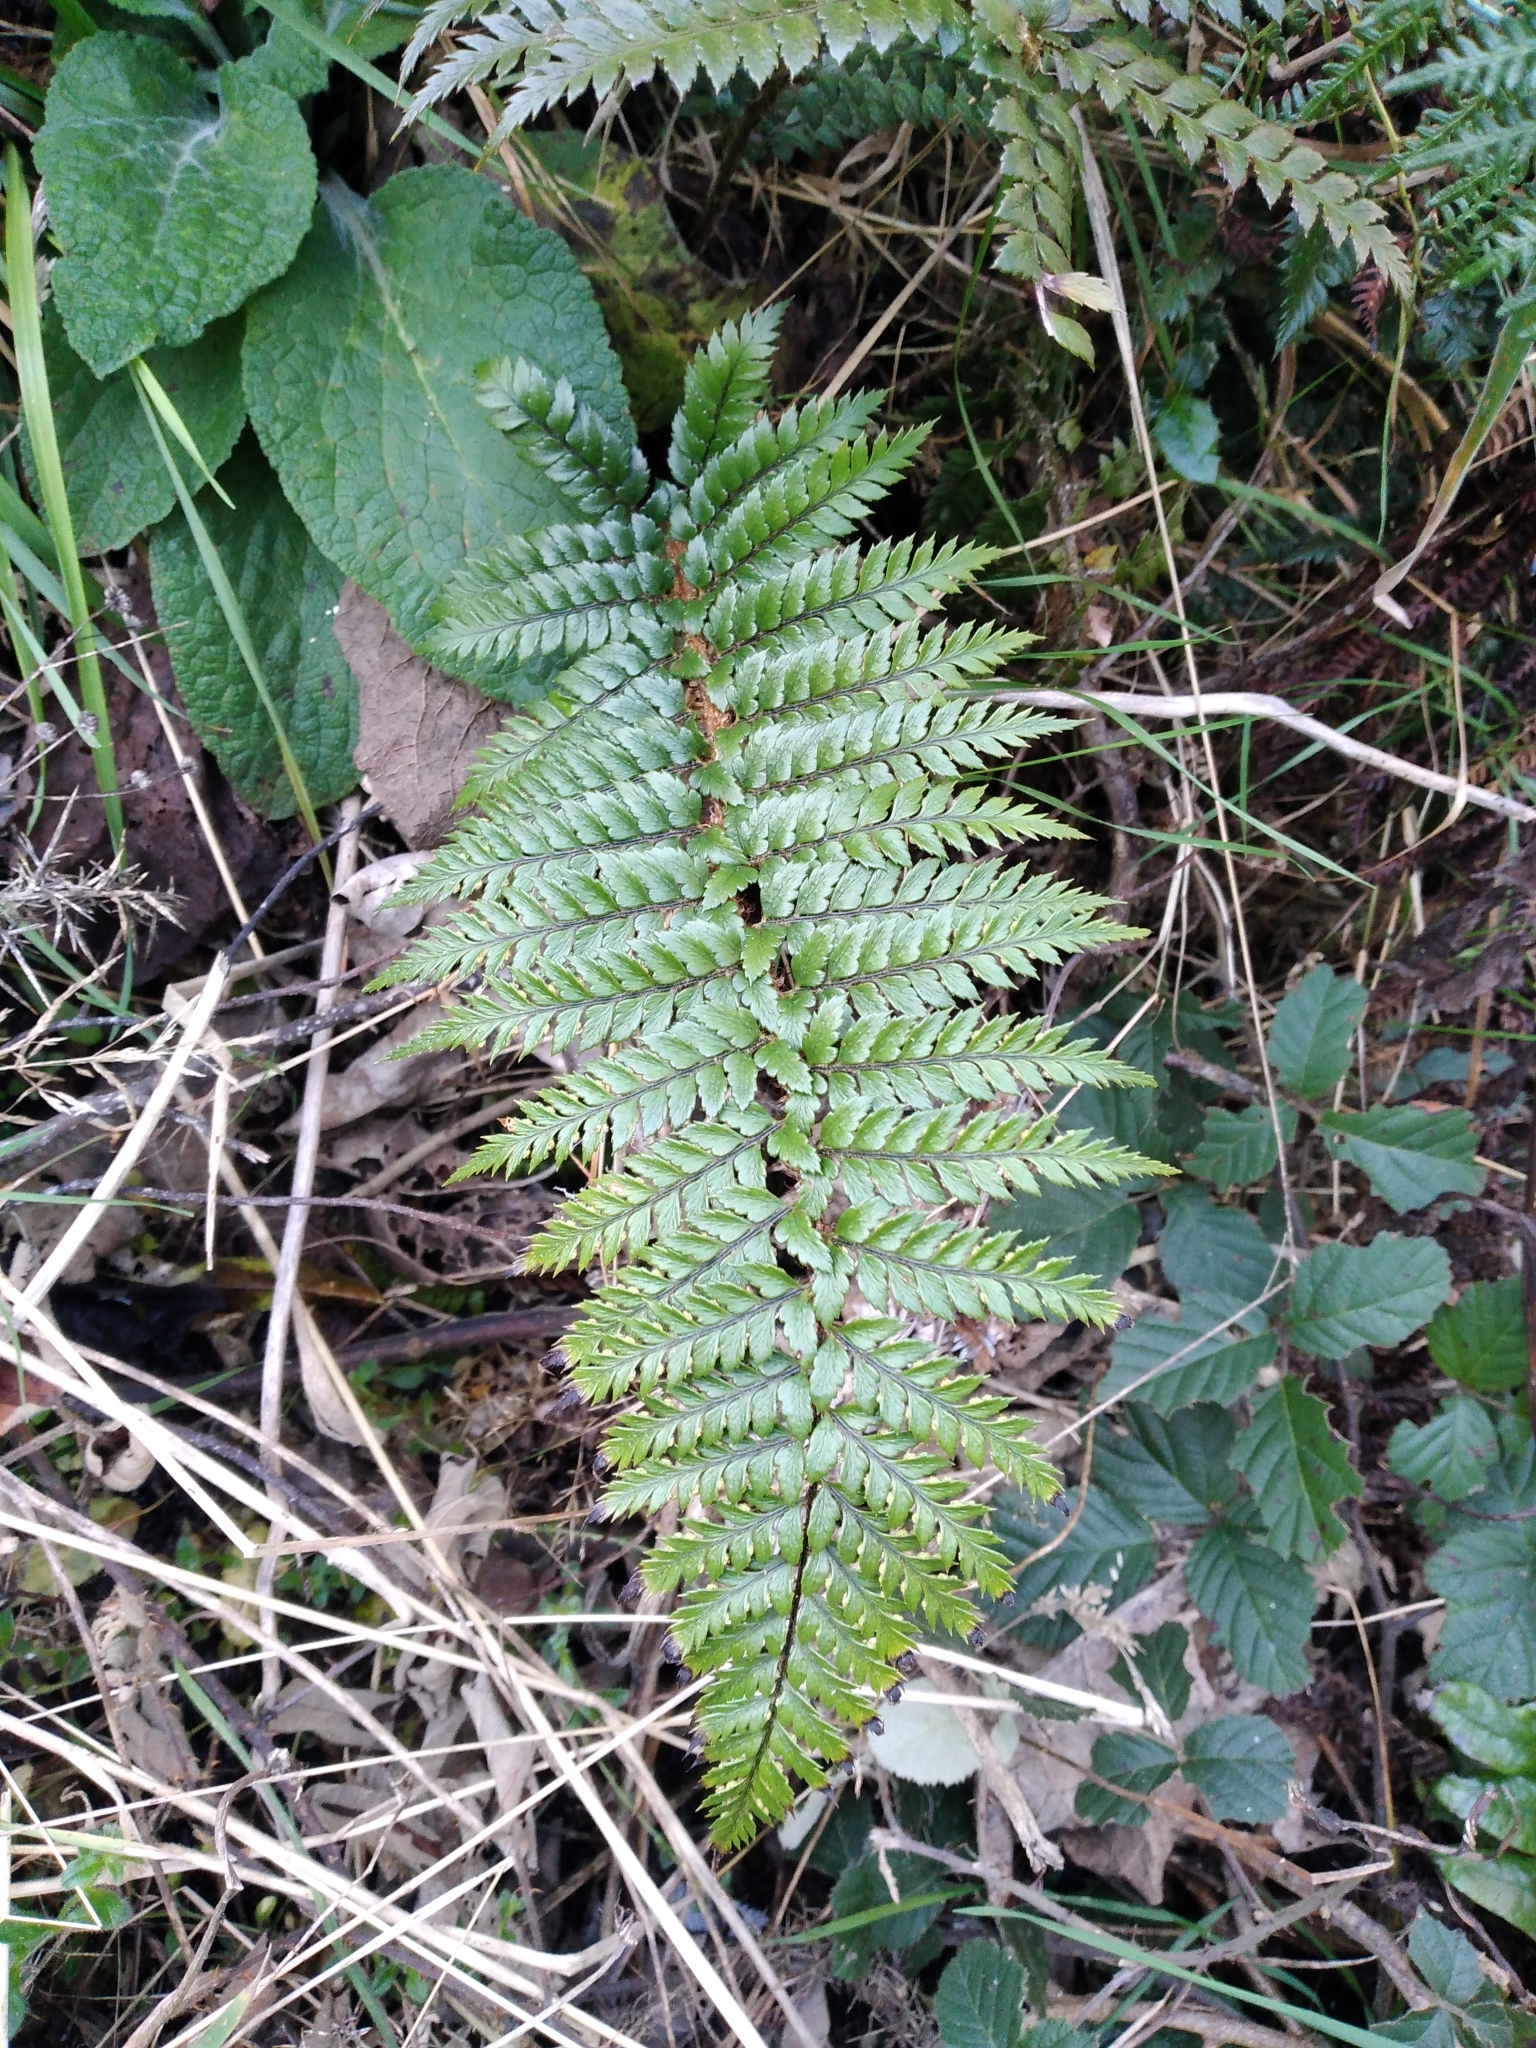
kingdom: Plantae
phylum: Tracheophyta
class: Polypodiopsida
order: Polypodiales
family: Dryopteridaceae
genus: Polystichum
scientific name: Polystichum
